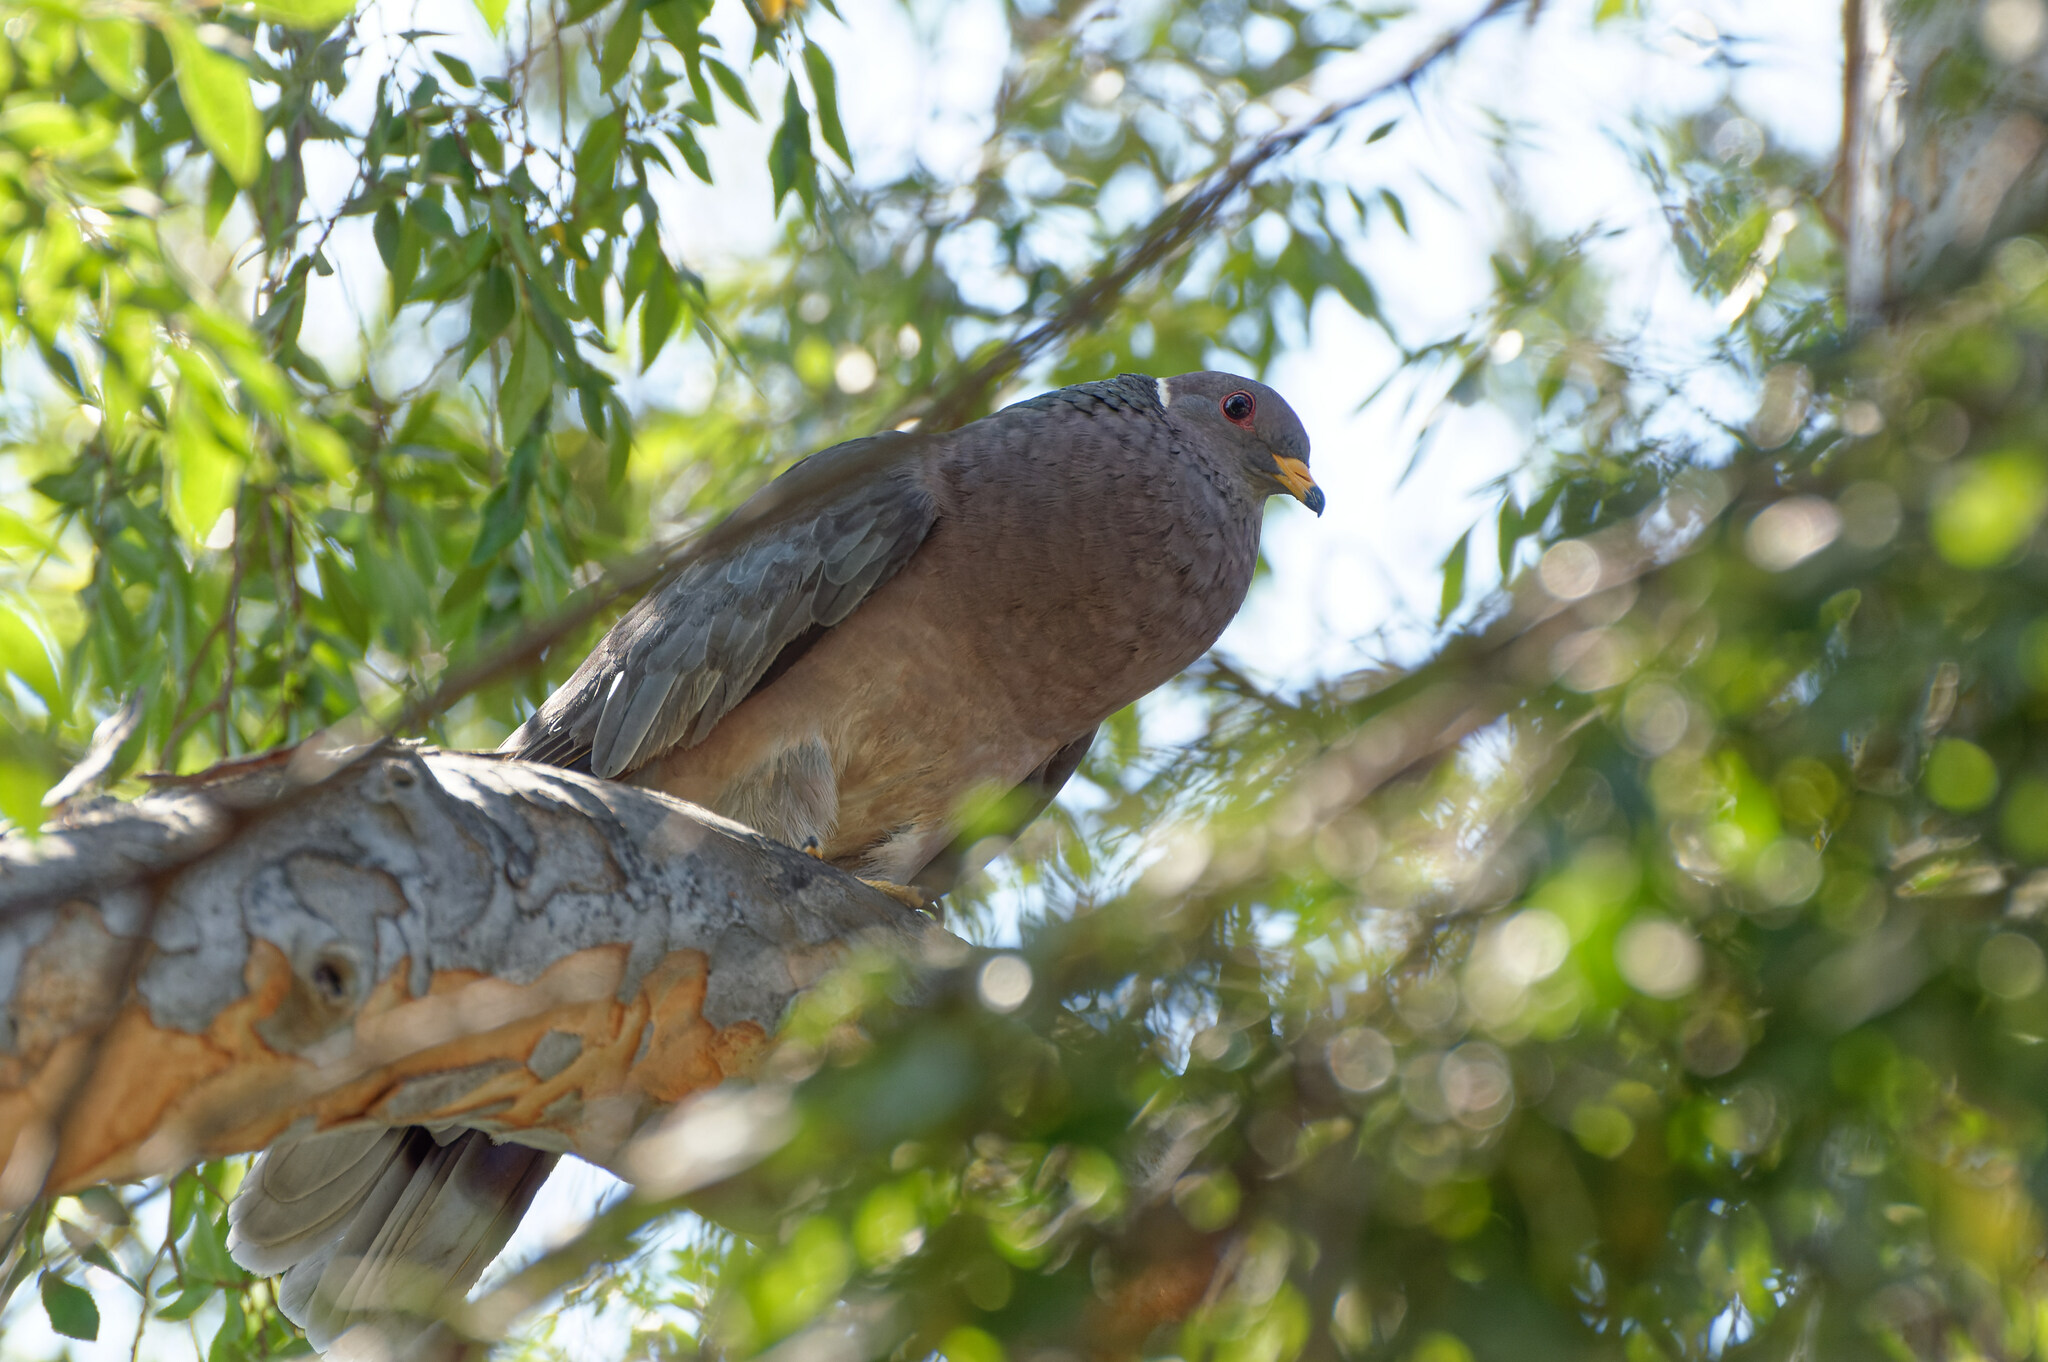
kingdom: Animalia
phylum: Chordata
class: Aves
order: Columbiformes
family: Columbidae
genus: Patagioenas
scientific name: Patagioenas fasciata
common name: Band-tailed pigeon
